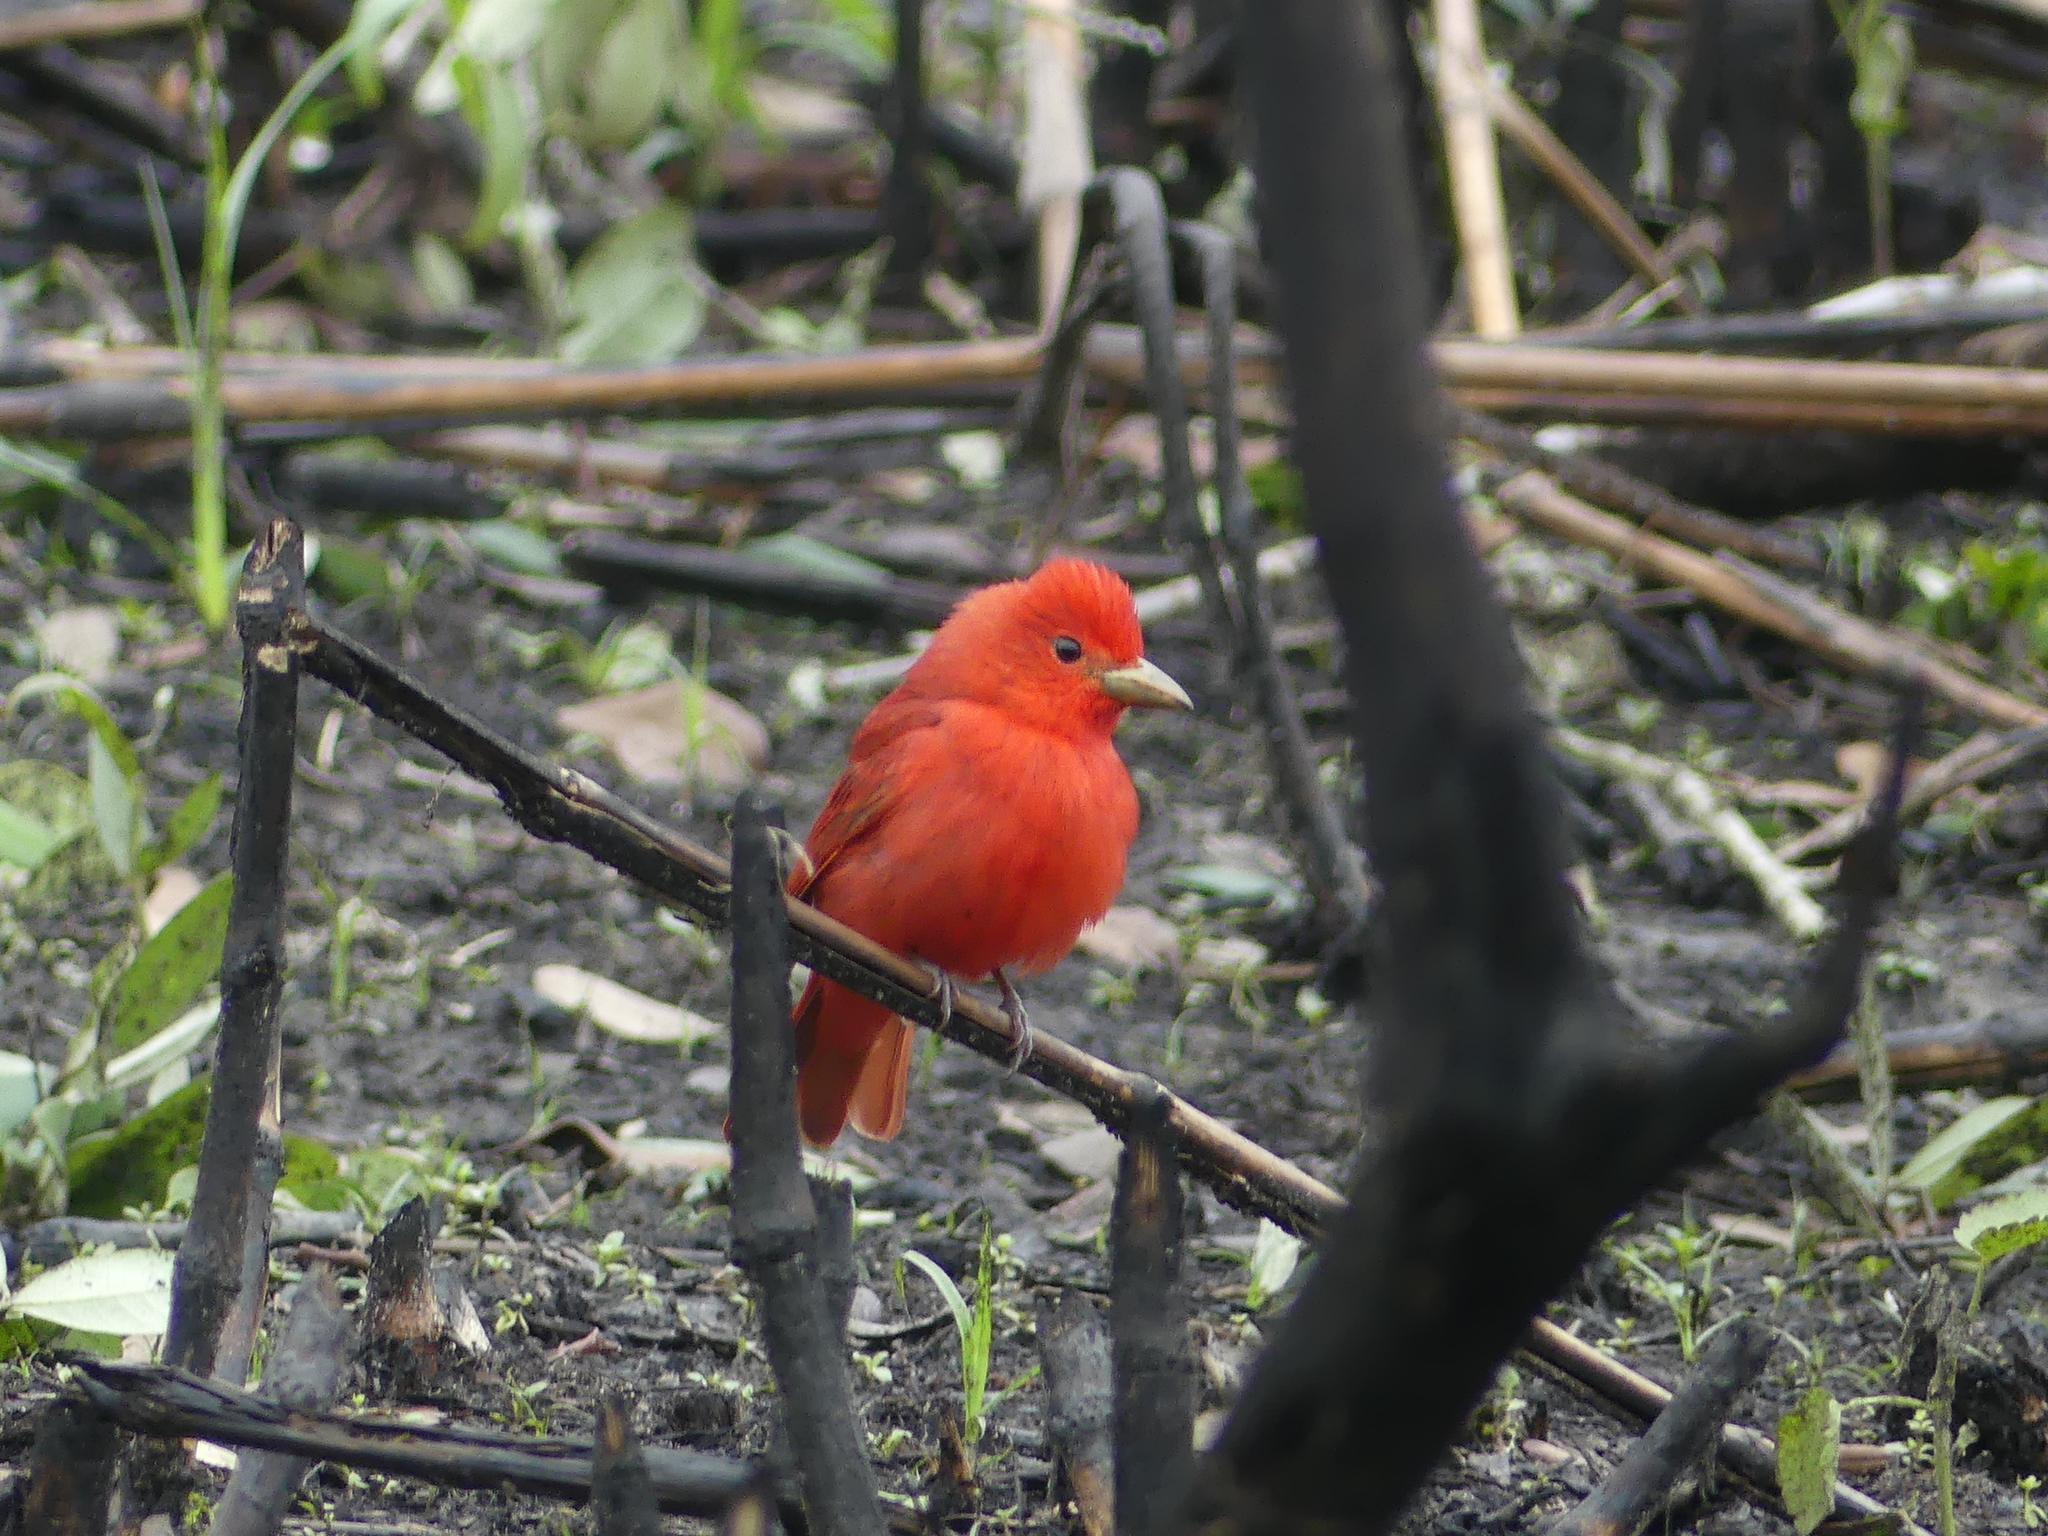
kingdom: Animalia
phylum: Chordata
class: Aves
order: Passeriformes
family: Cardinalidae
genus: Piranga
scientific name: Piranga rubra
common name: Summer tanager
